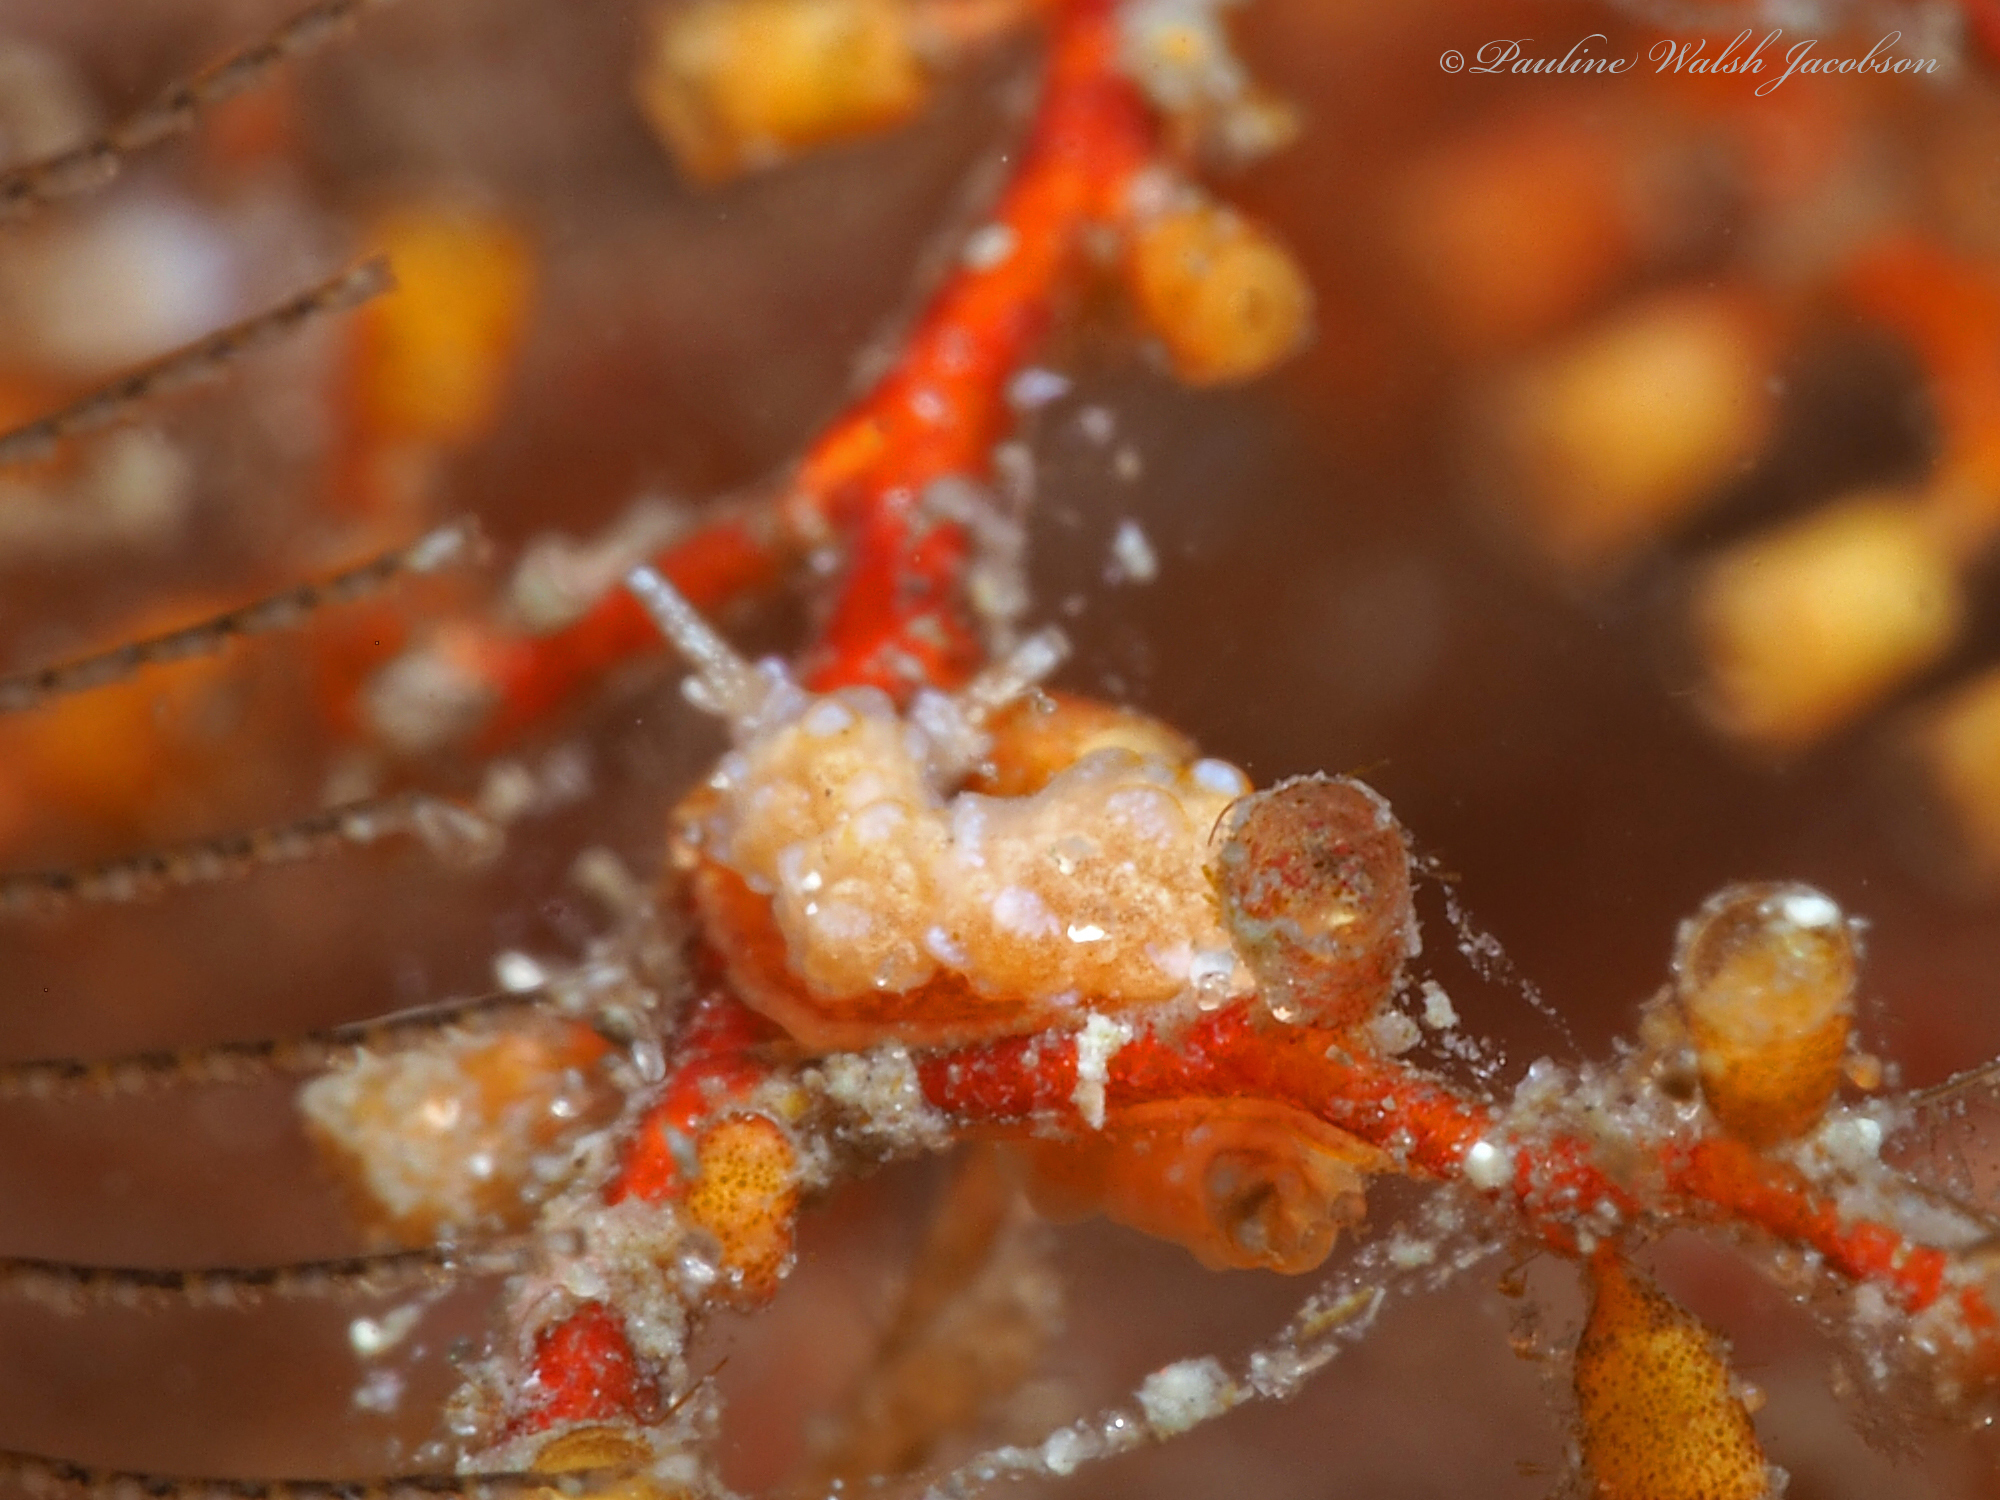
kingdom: Animalia
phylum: Mollusca
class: Gastropoda
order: Nudibranchia
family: Dotidae
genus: Doto
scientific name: Doto torrelavega
